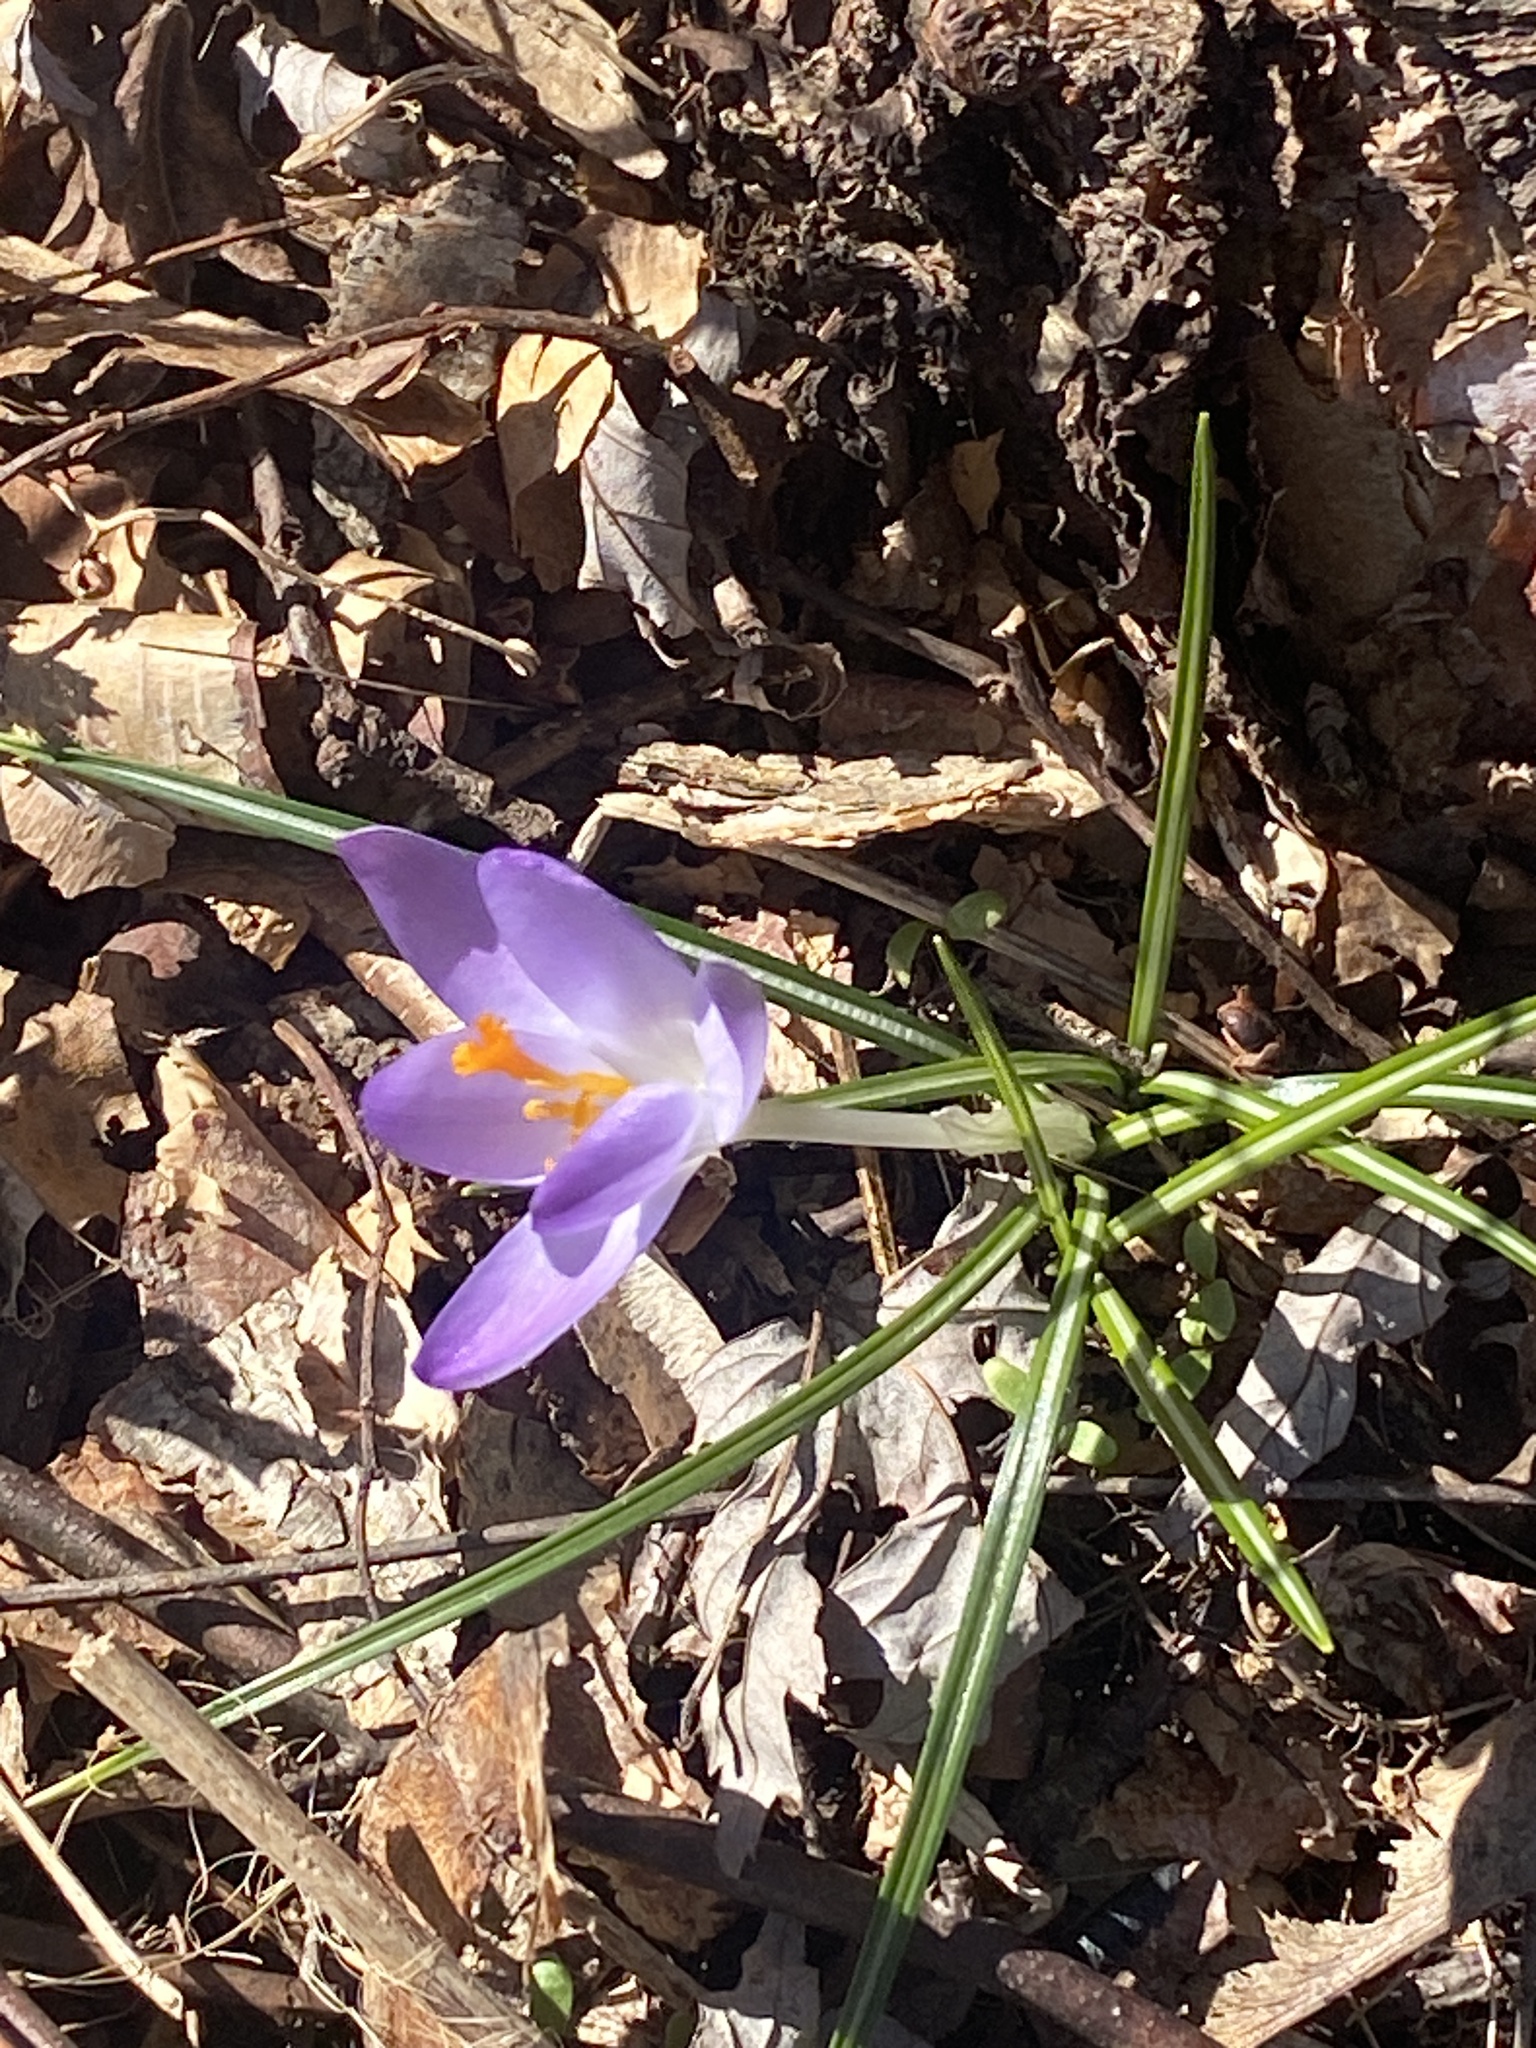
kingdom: Plantae
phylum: Tracheophyta
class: Liliopsida
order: Asparagales
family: Iridaceae
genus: Crocus
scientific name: Crocus tommasinianus
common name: Early crocus
